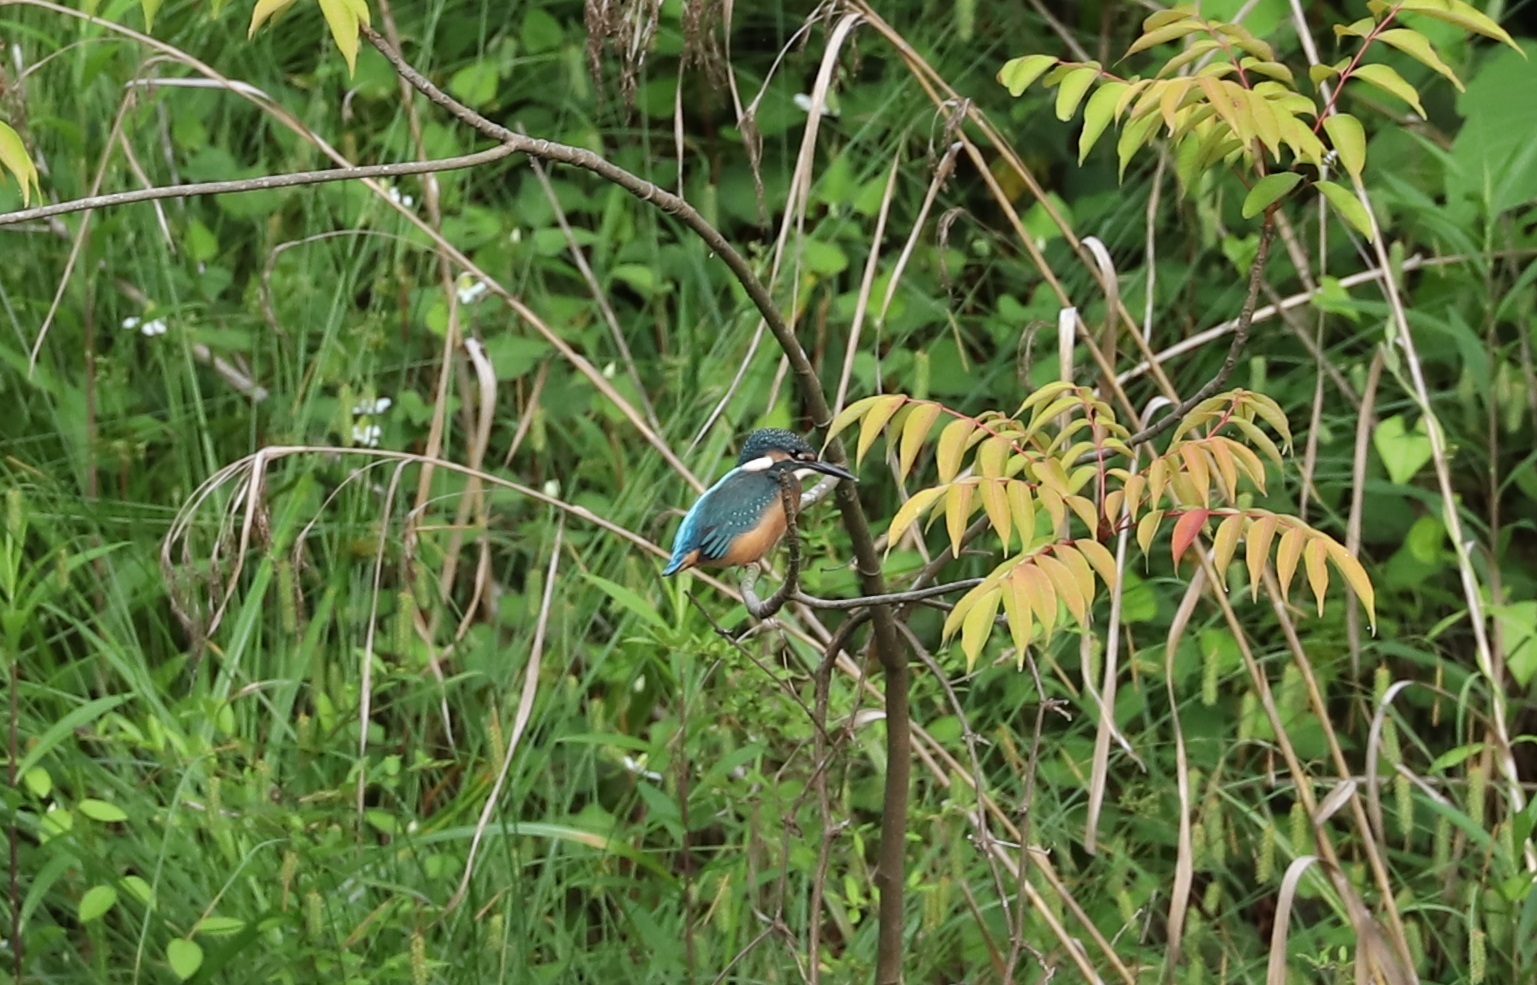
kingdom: Animalia
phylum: Chordata
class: Aves
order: Coraciiformes
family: Alcedinidae
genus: Alcedo
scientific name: Alcedo atthis
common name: Common kingfisher
